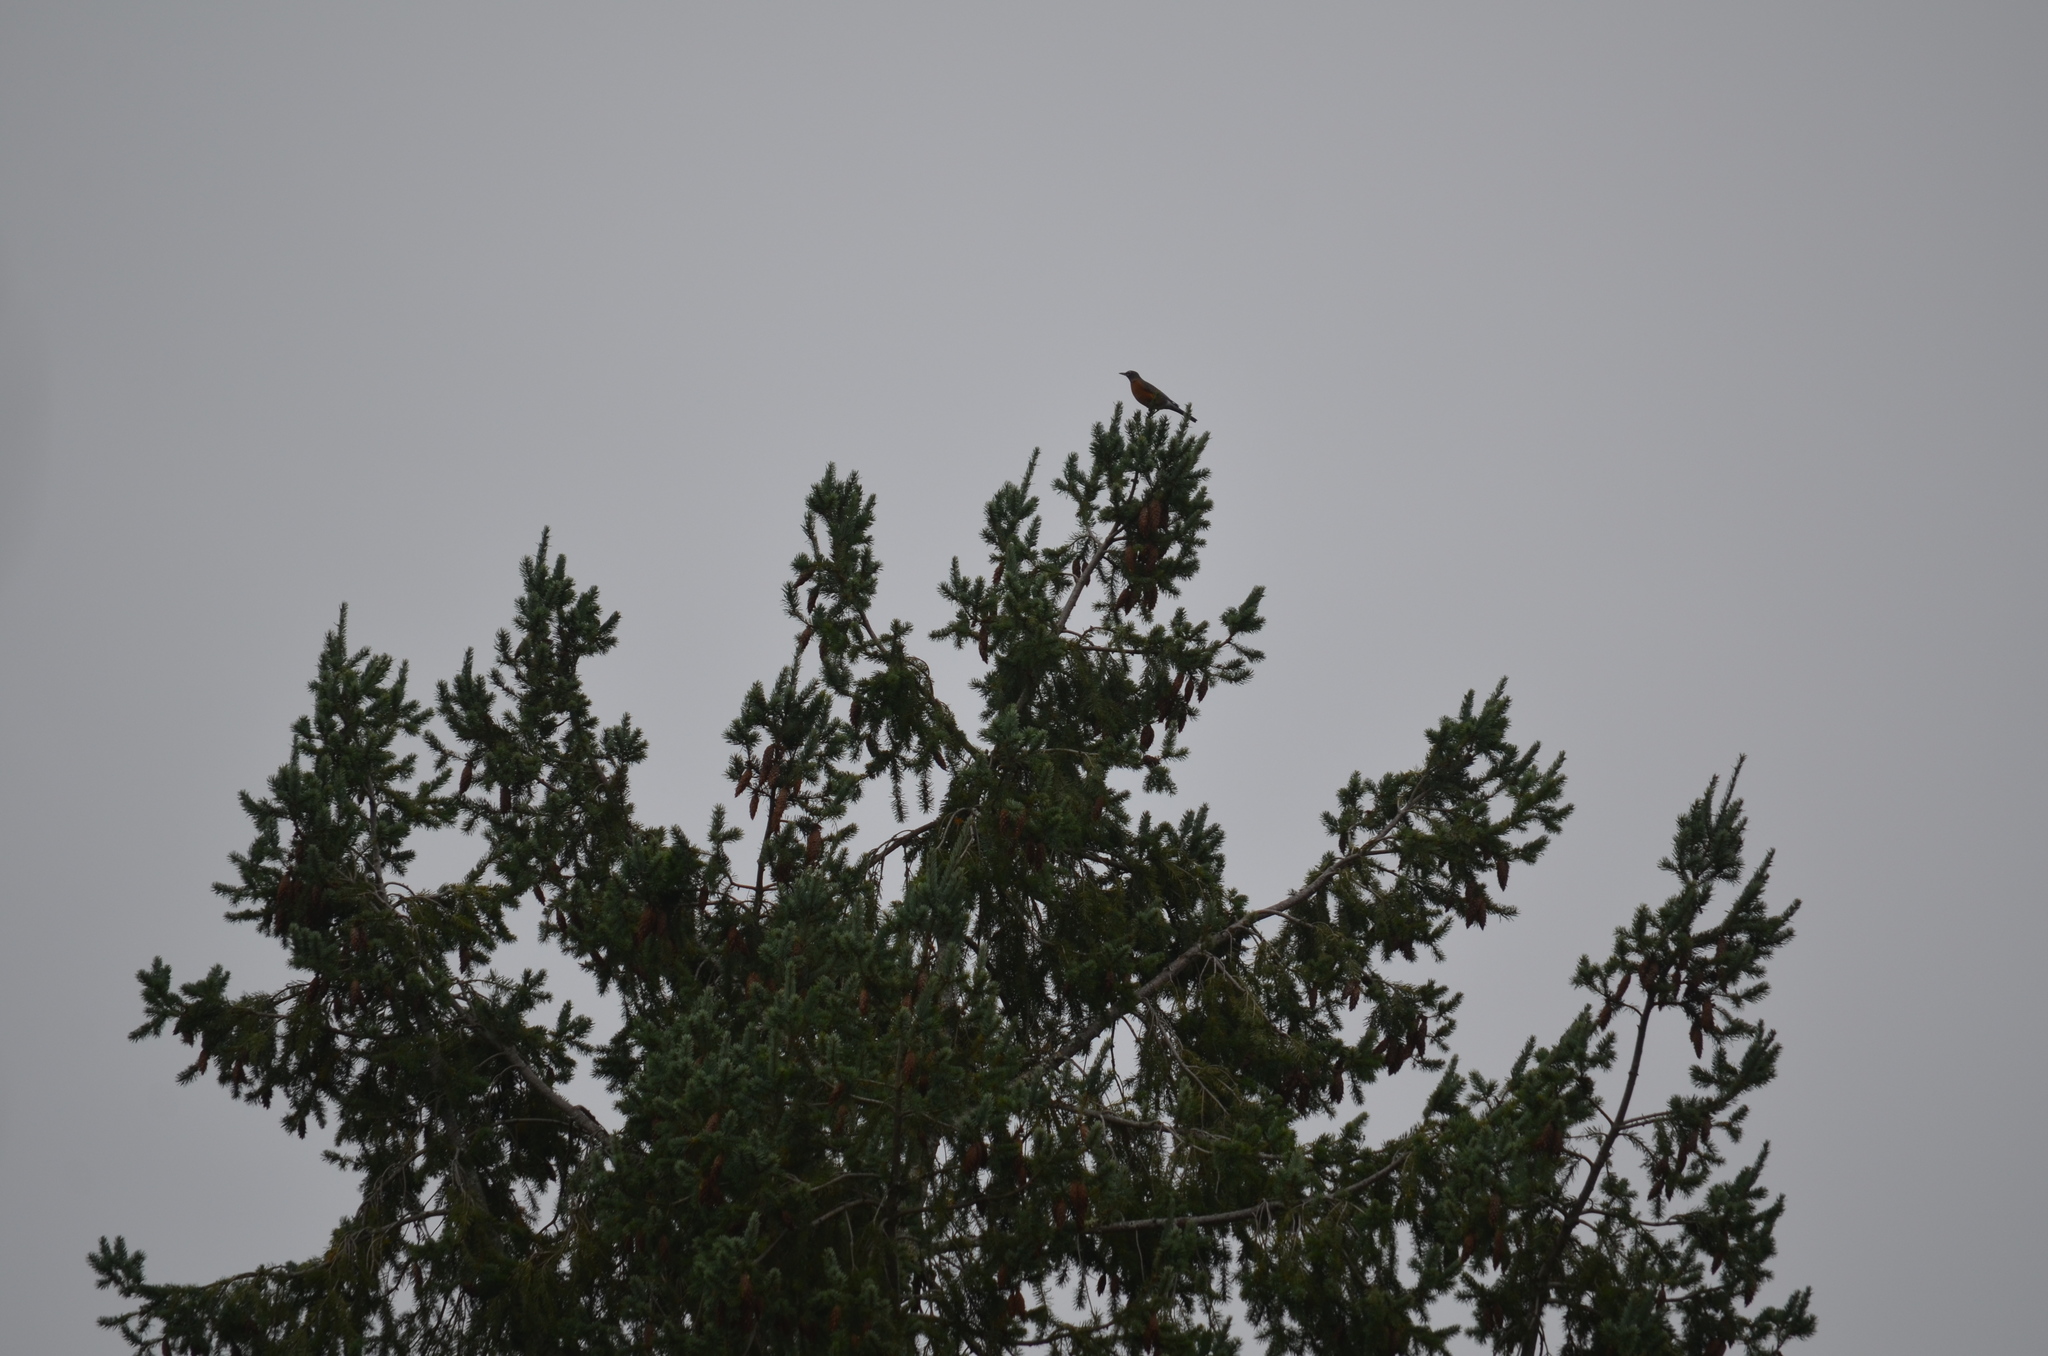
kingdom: Animalia
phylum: Chordata
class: Aves
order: Passeriformes
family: Turdidae
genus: Turdus
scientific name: Turdus migratorius
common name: American robin
